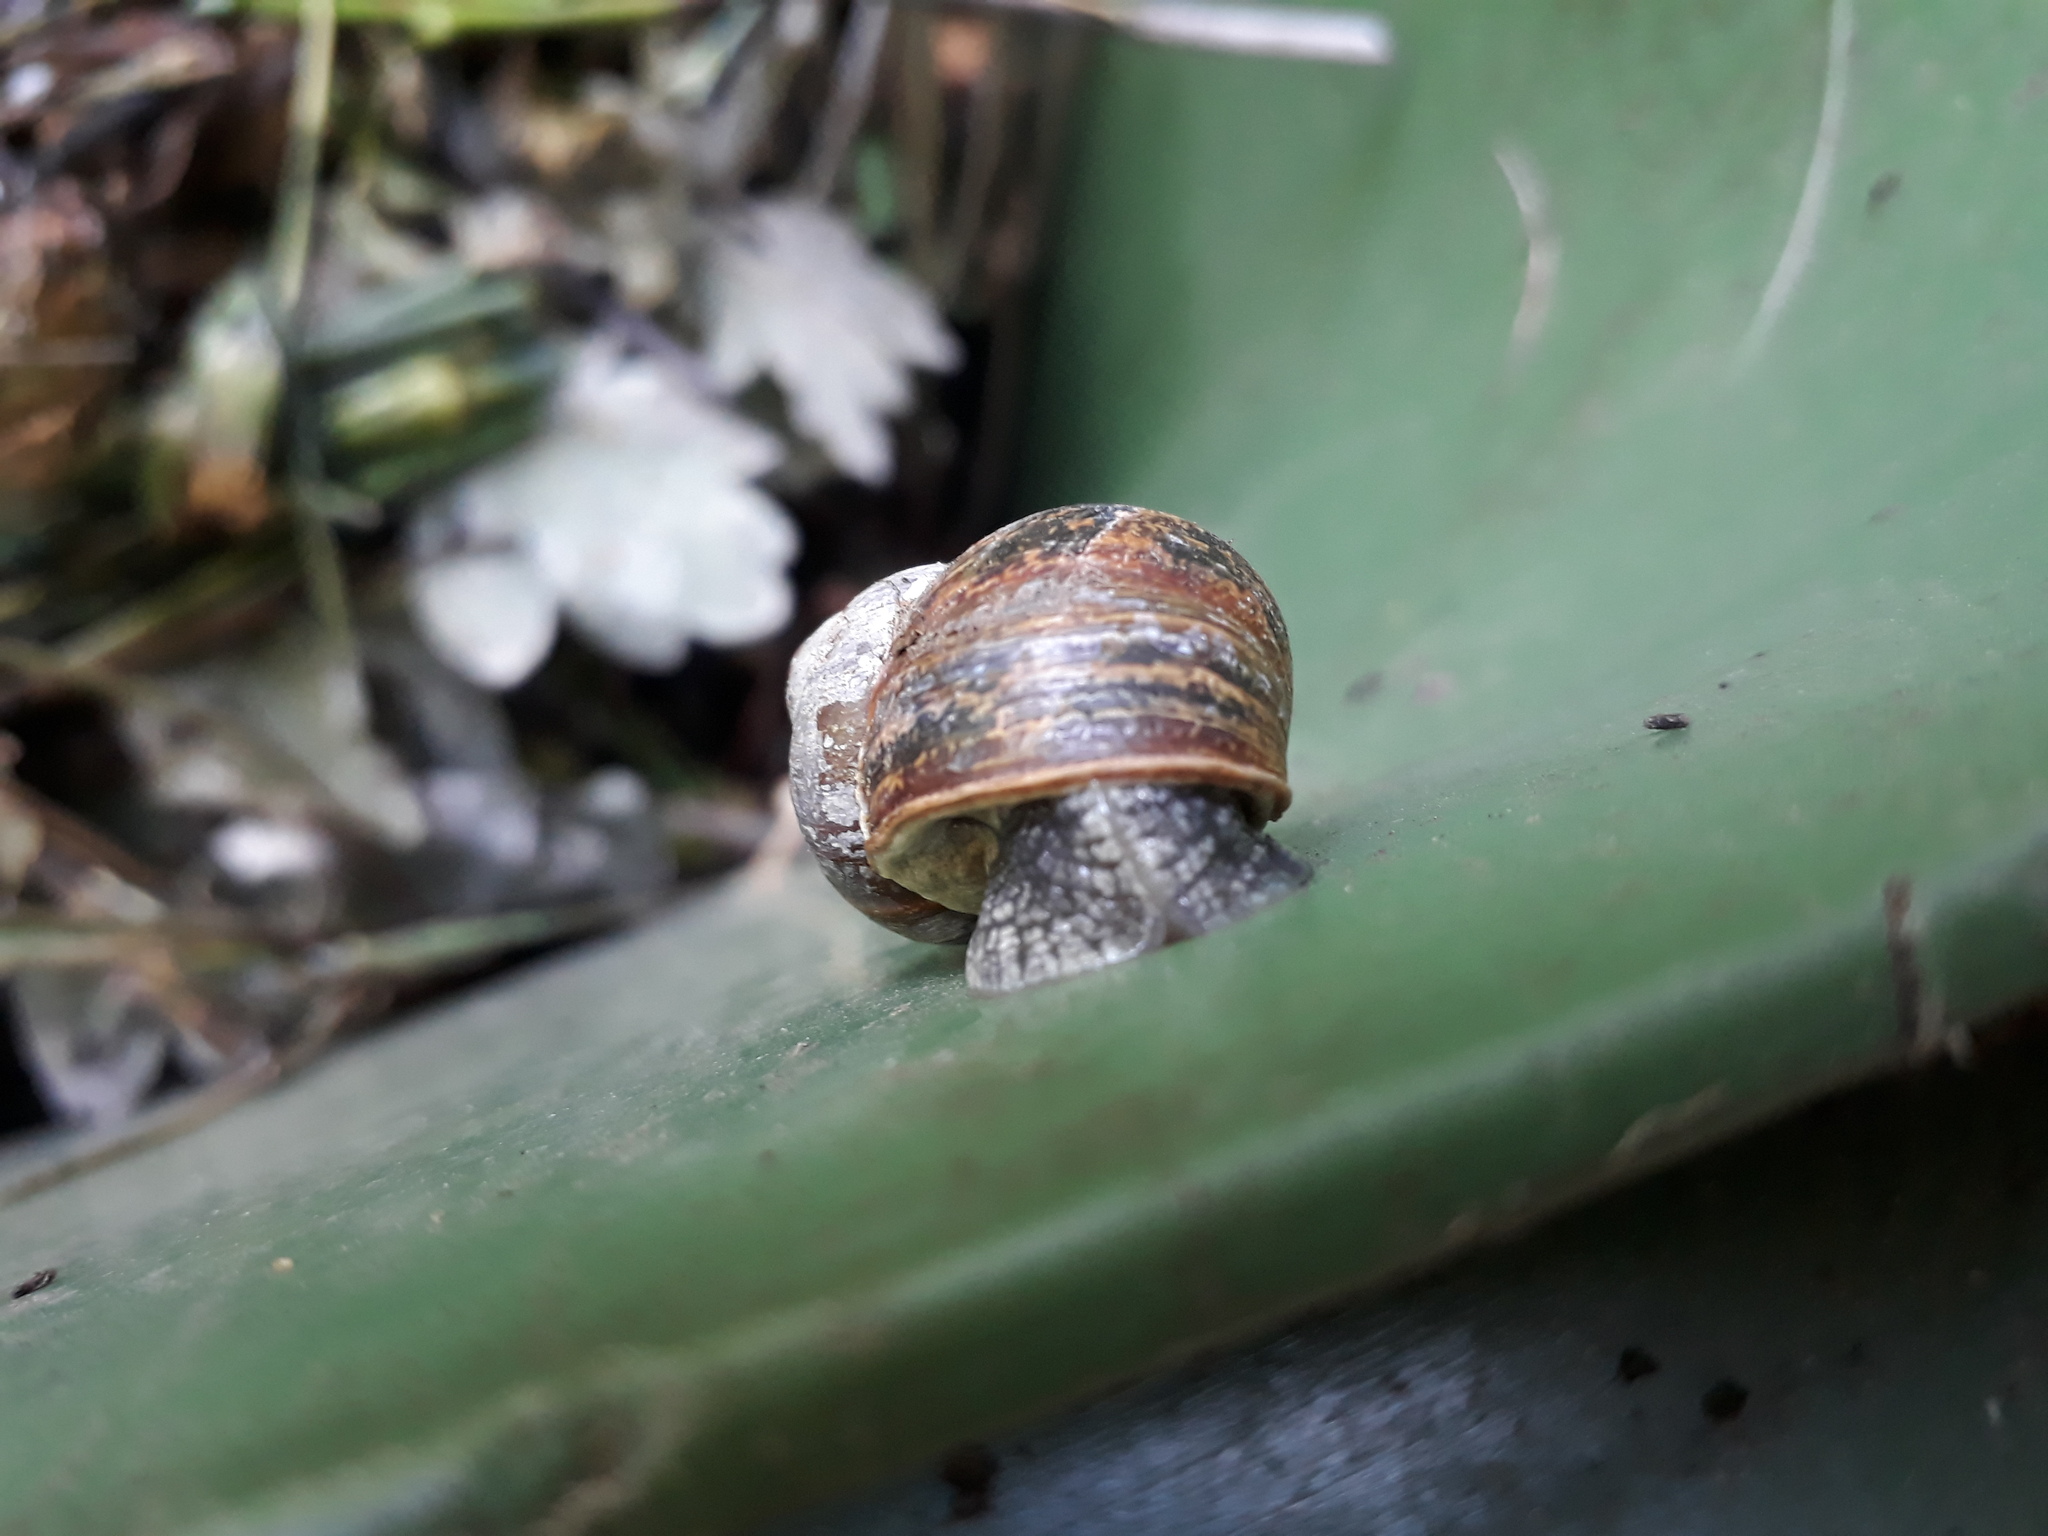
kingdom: Animalia
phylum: Mollusca
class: Gastropoda
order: Stylommatophora
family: Helicidae
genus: Cornu
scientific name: Cornu aspersum
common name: Brown garden snail
